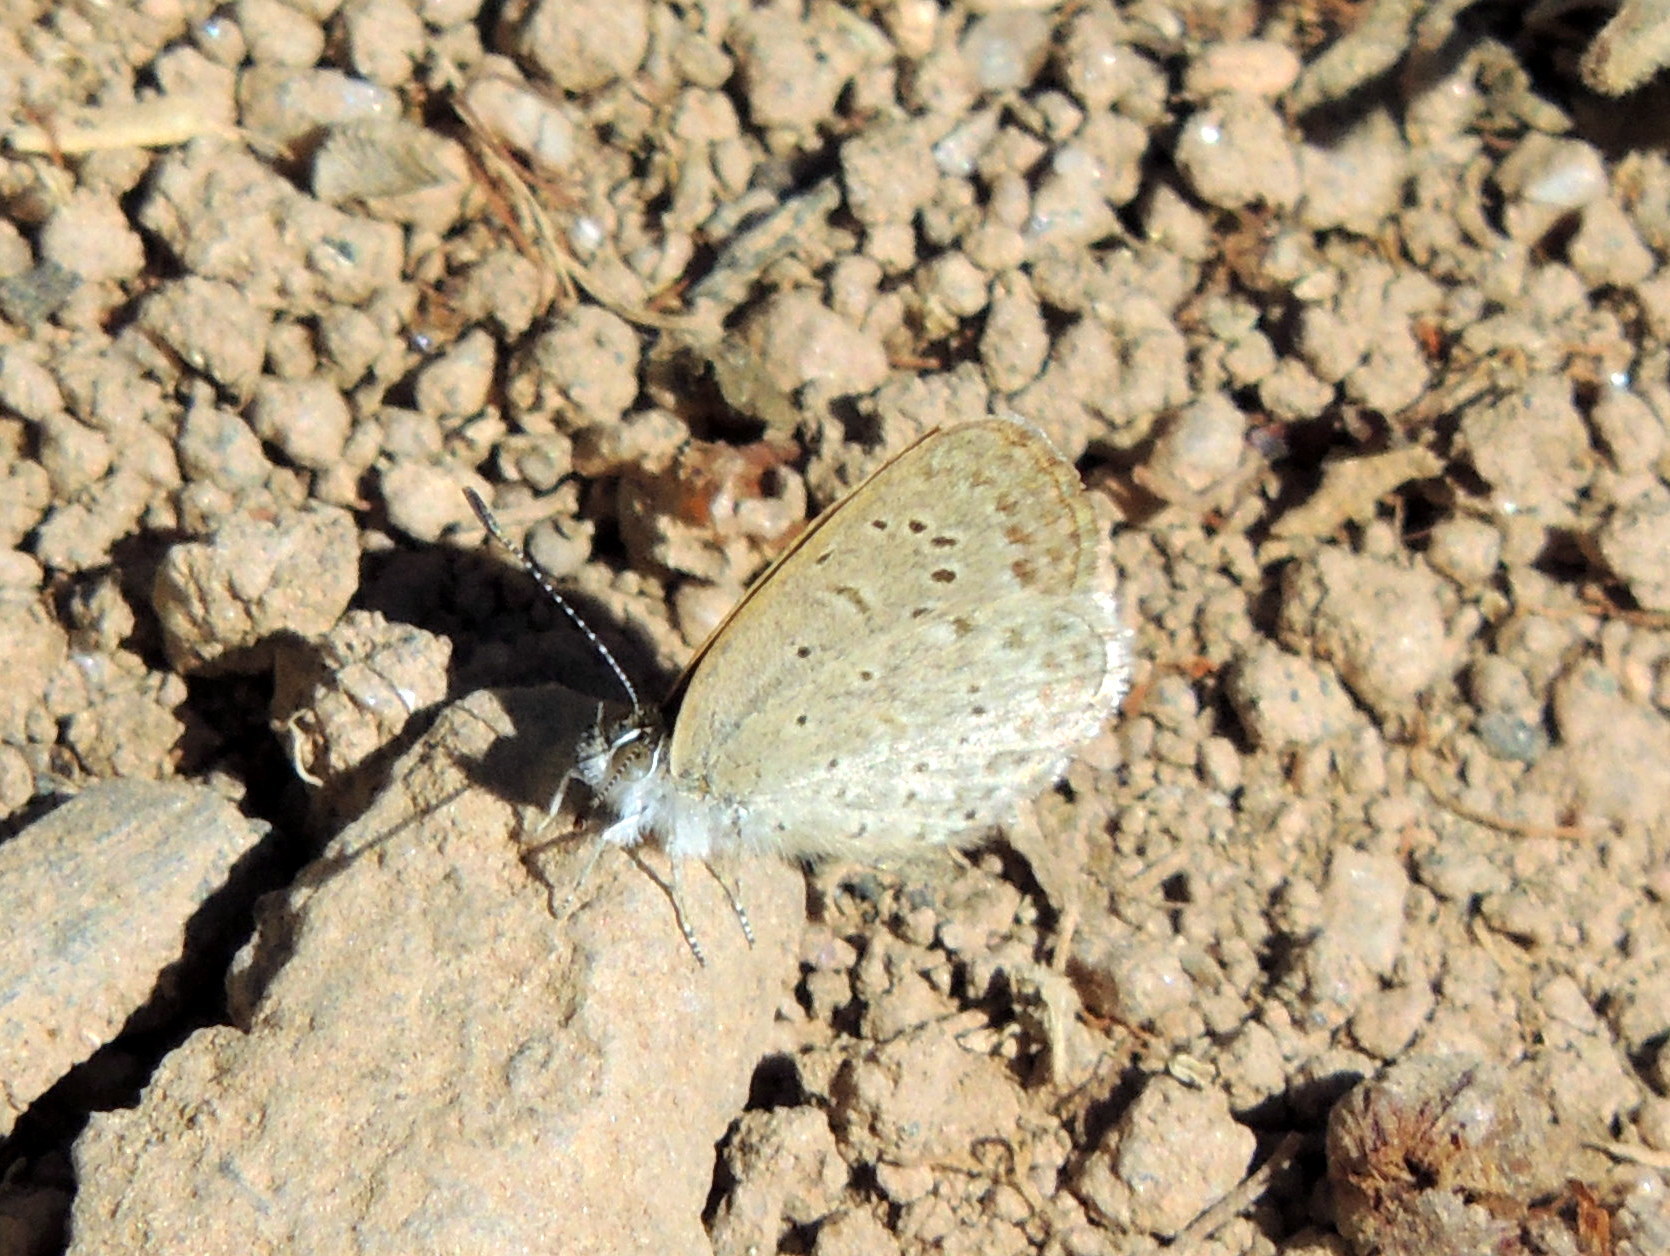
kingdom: Animalia
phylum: Arthropoda
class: Insecta
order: Lepidoptera
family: Lycaenidae
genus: Zizeeria
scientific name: Zizeeria knysna
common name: African grass blue
